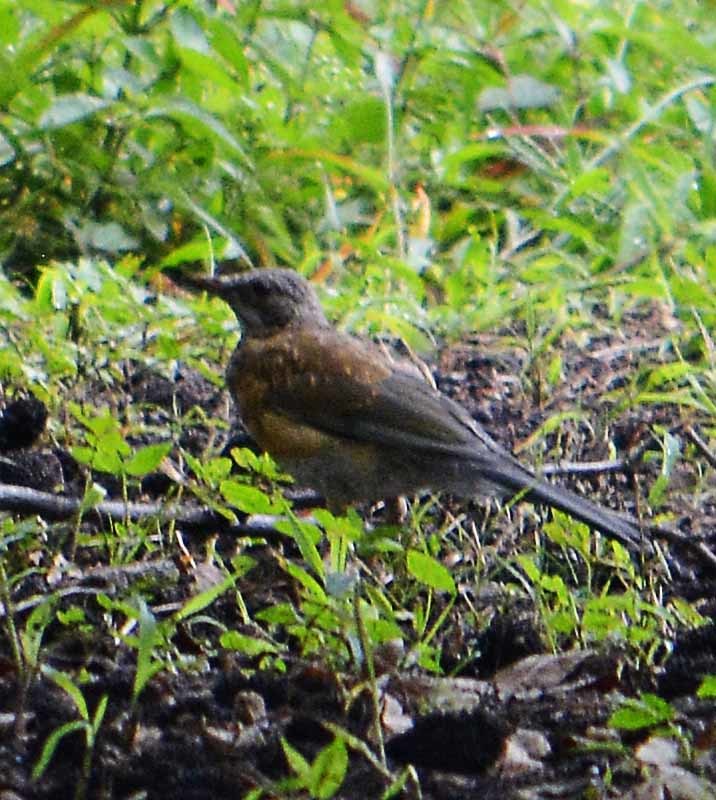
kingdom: Animalia
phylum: Chordata
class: Aves
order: Passeriformes
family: Turdidae
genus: Turdus
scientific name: Turdus rufopalliatus
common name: Rufous-backed robin
